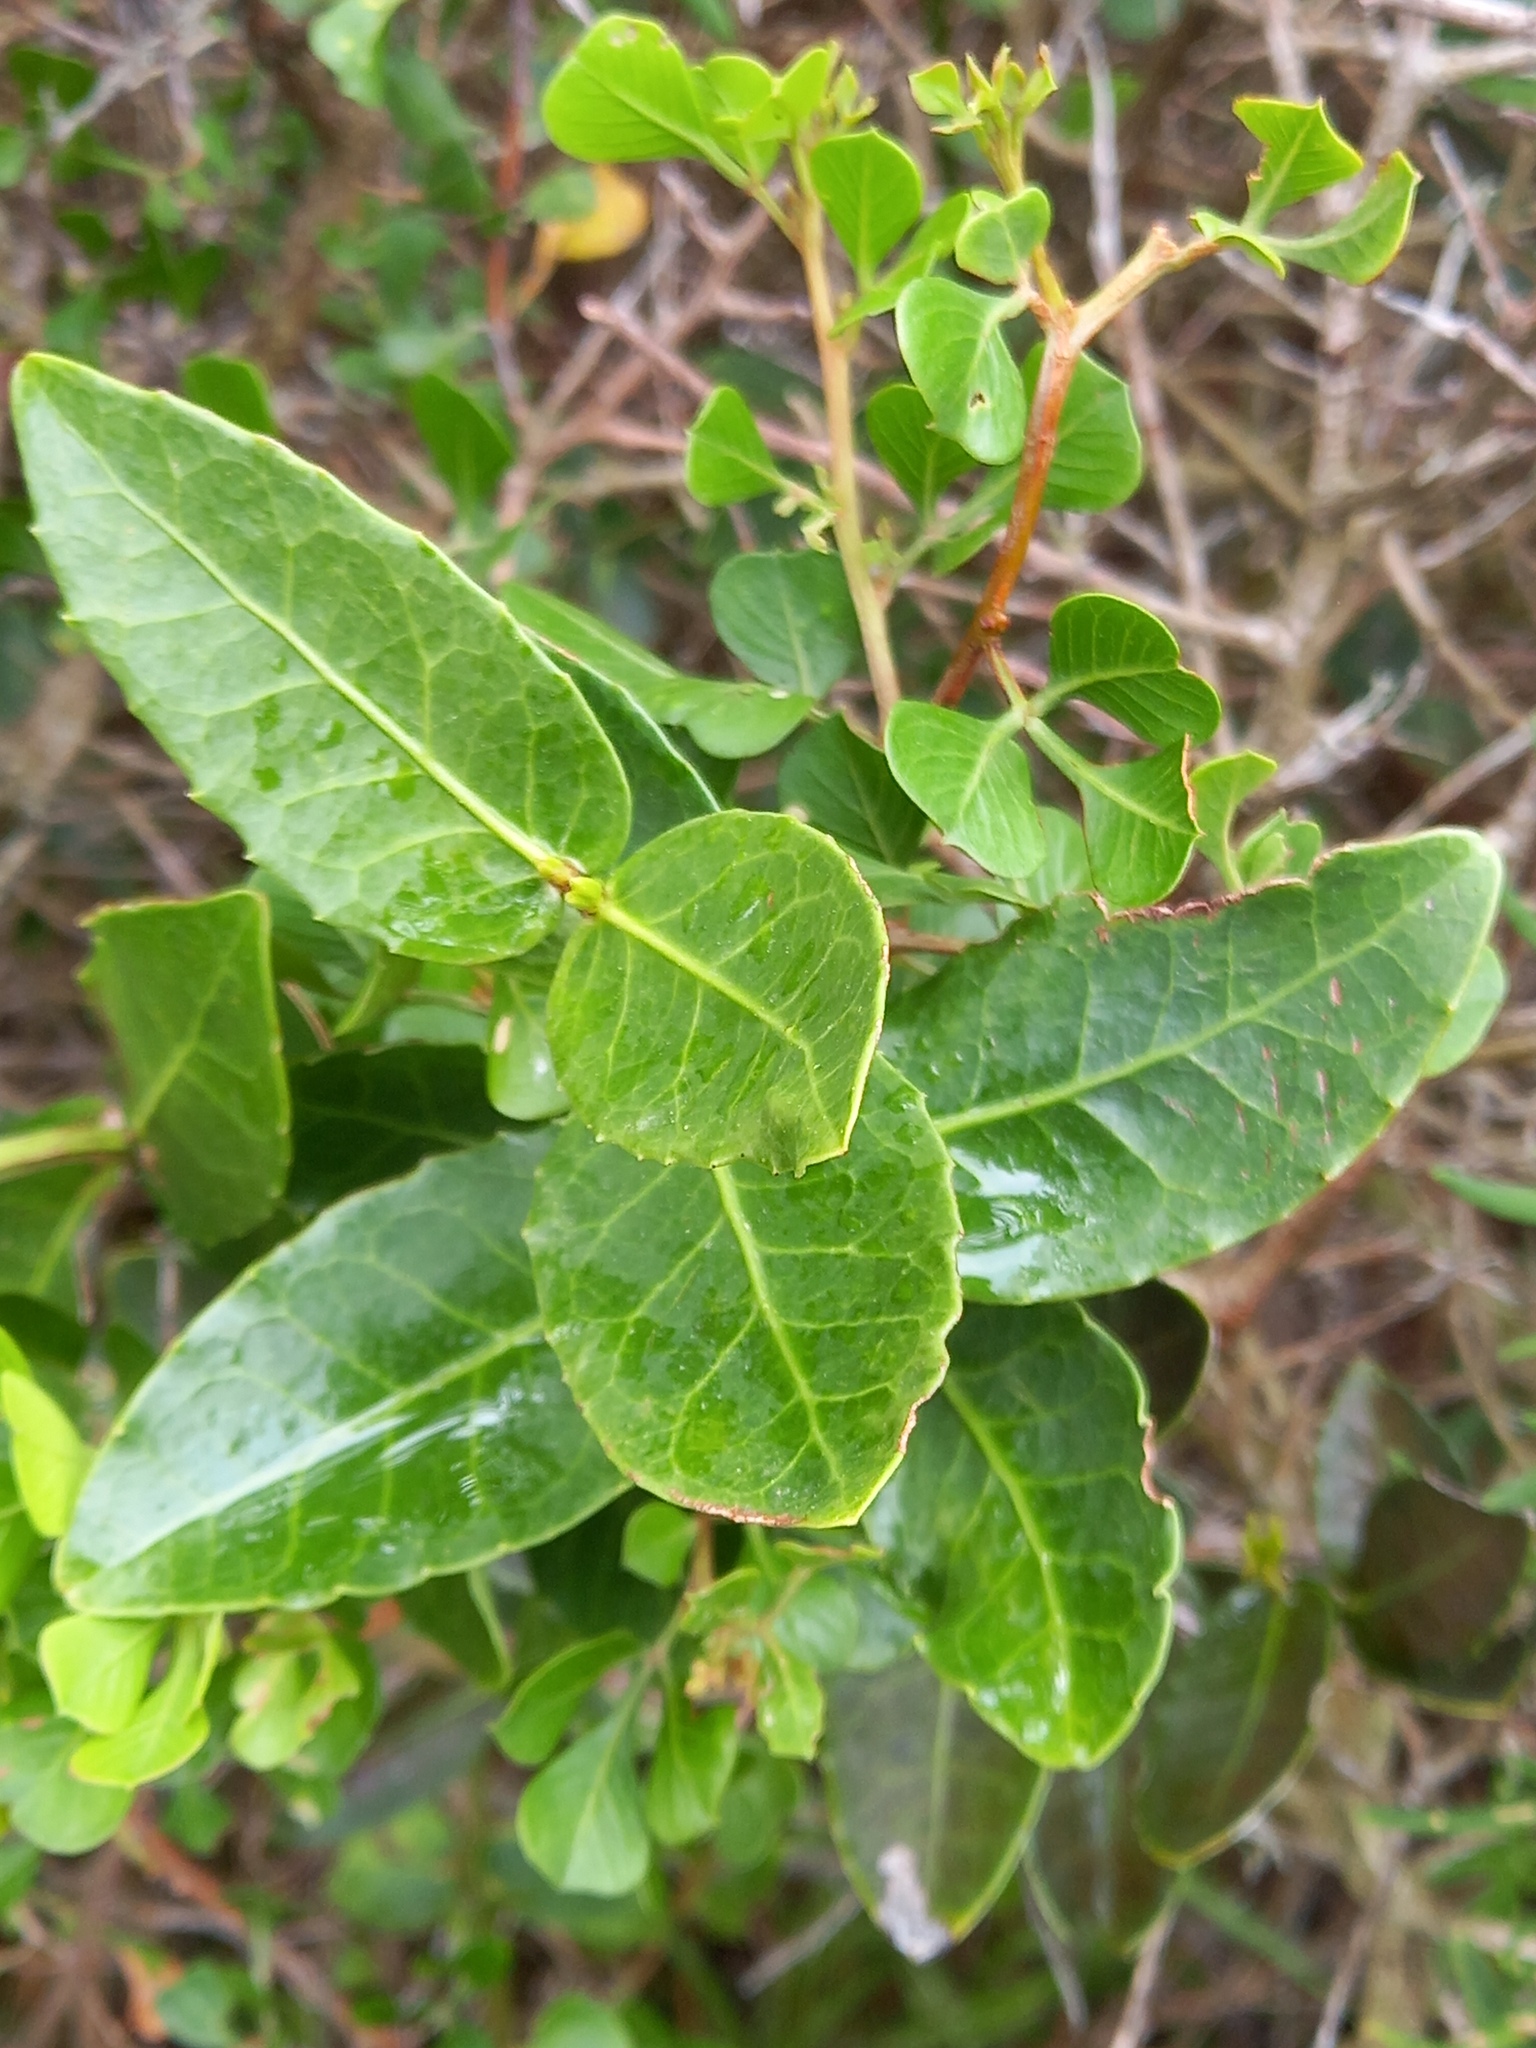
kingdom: Plantae
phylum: Tracheophyta
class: Magnoliopsida
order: Celastrales
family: Celastraceae
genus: Lauridia
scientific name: Lauridia tetragona
